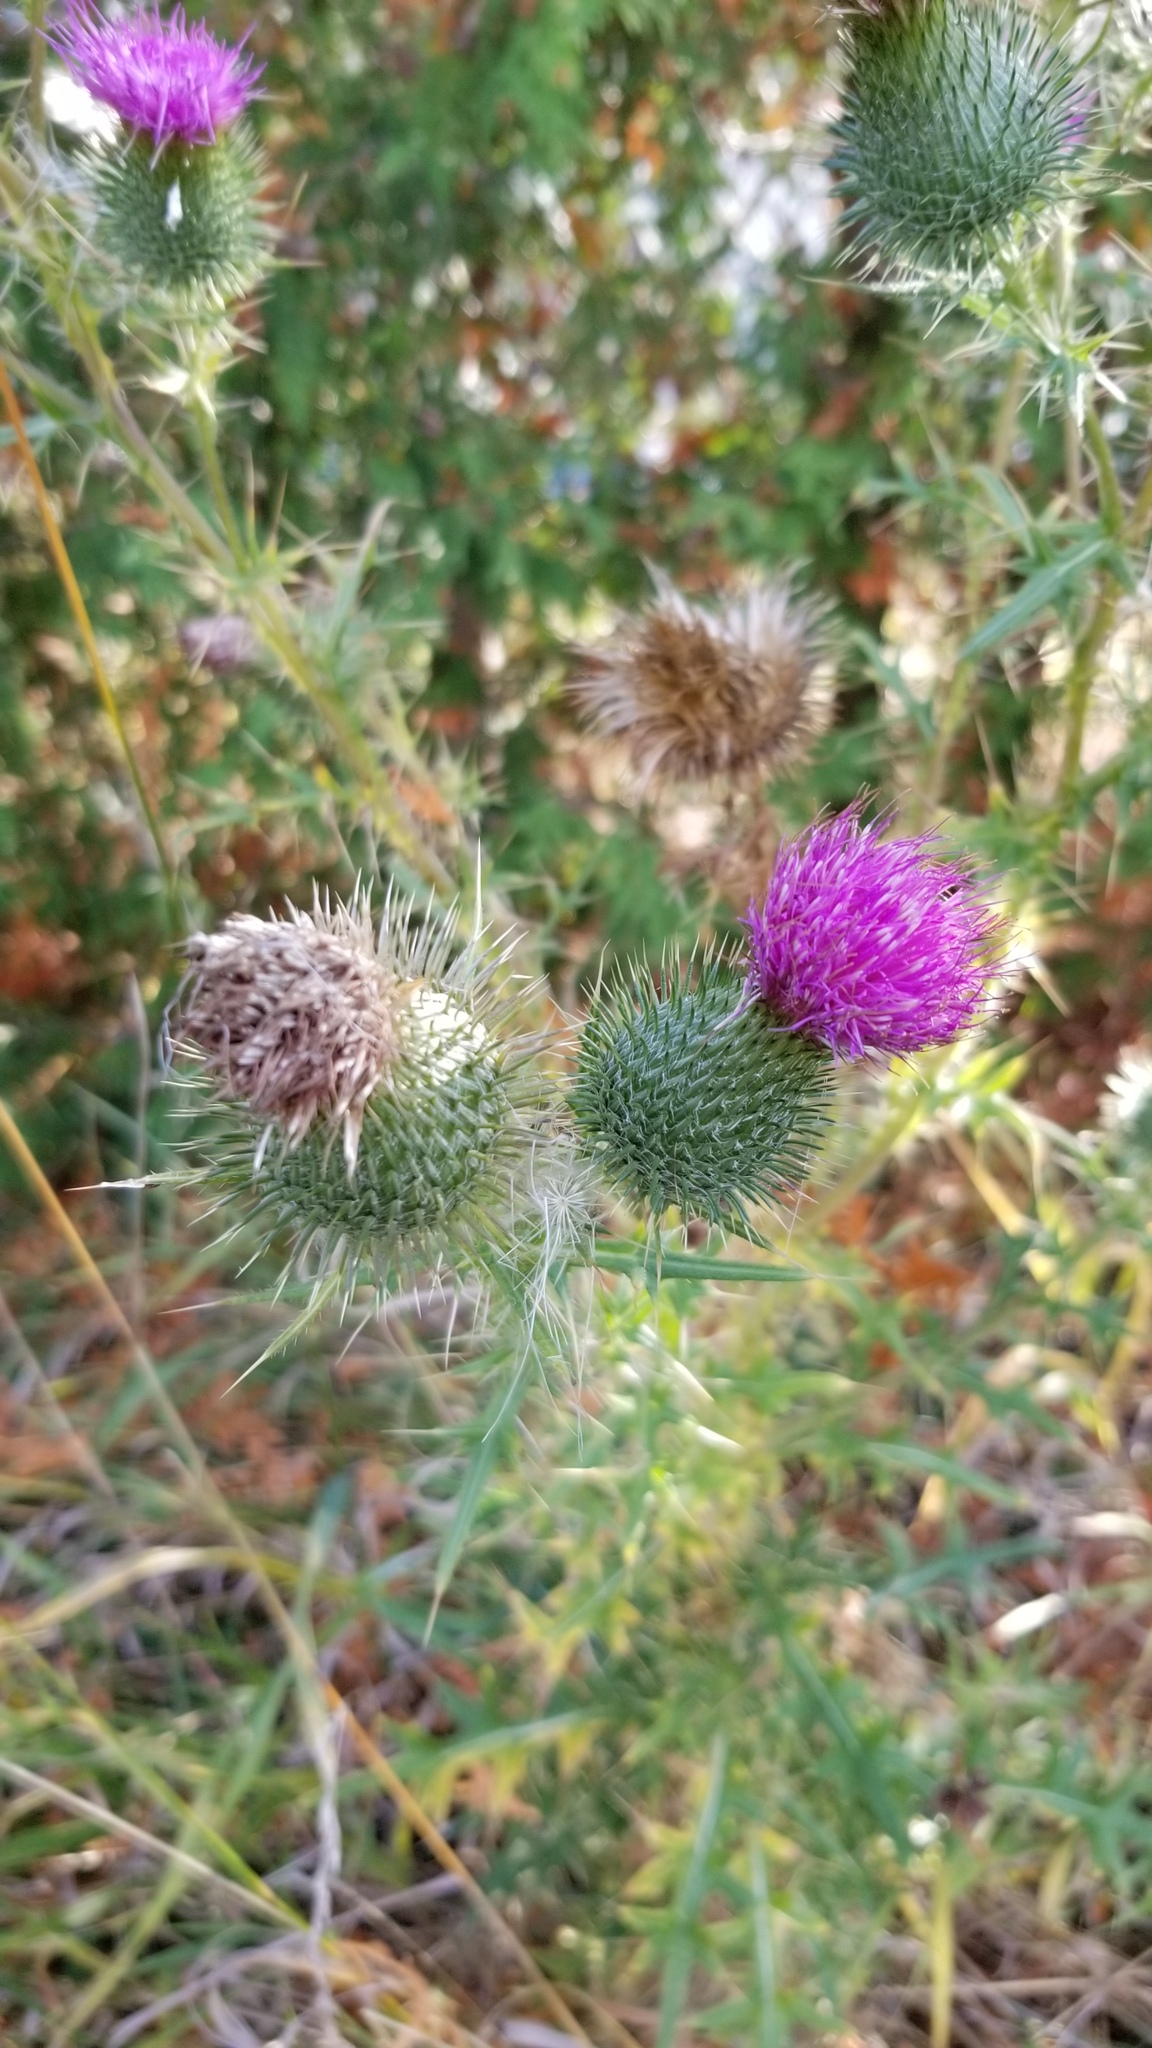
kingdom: Plantae
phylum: Tracheophyta
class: Magnoliopsida
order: Asterales
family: Asteraceae
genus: Cirsium
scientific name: Cirsium vulgare
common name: Bull thistle
